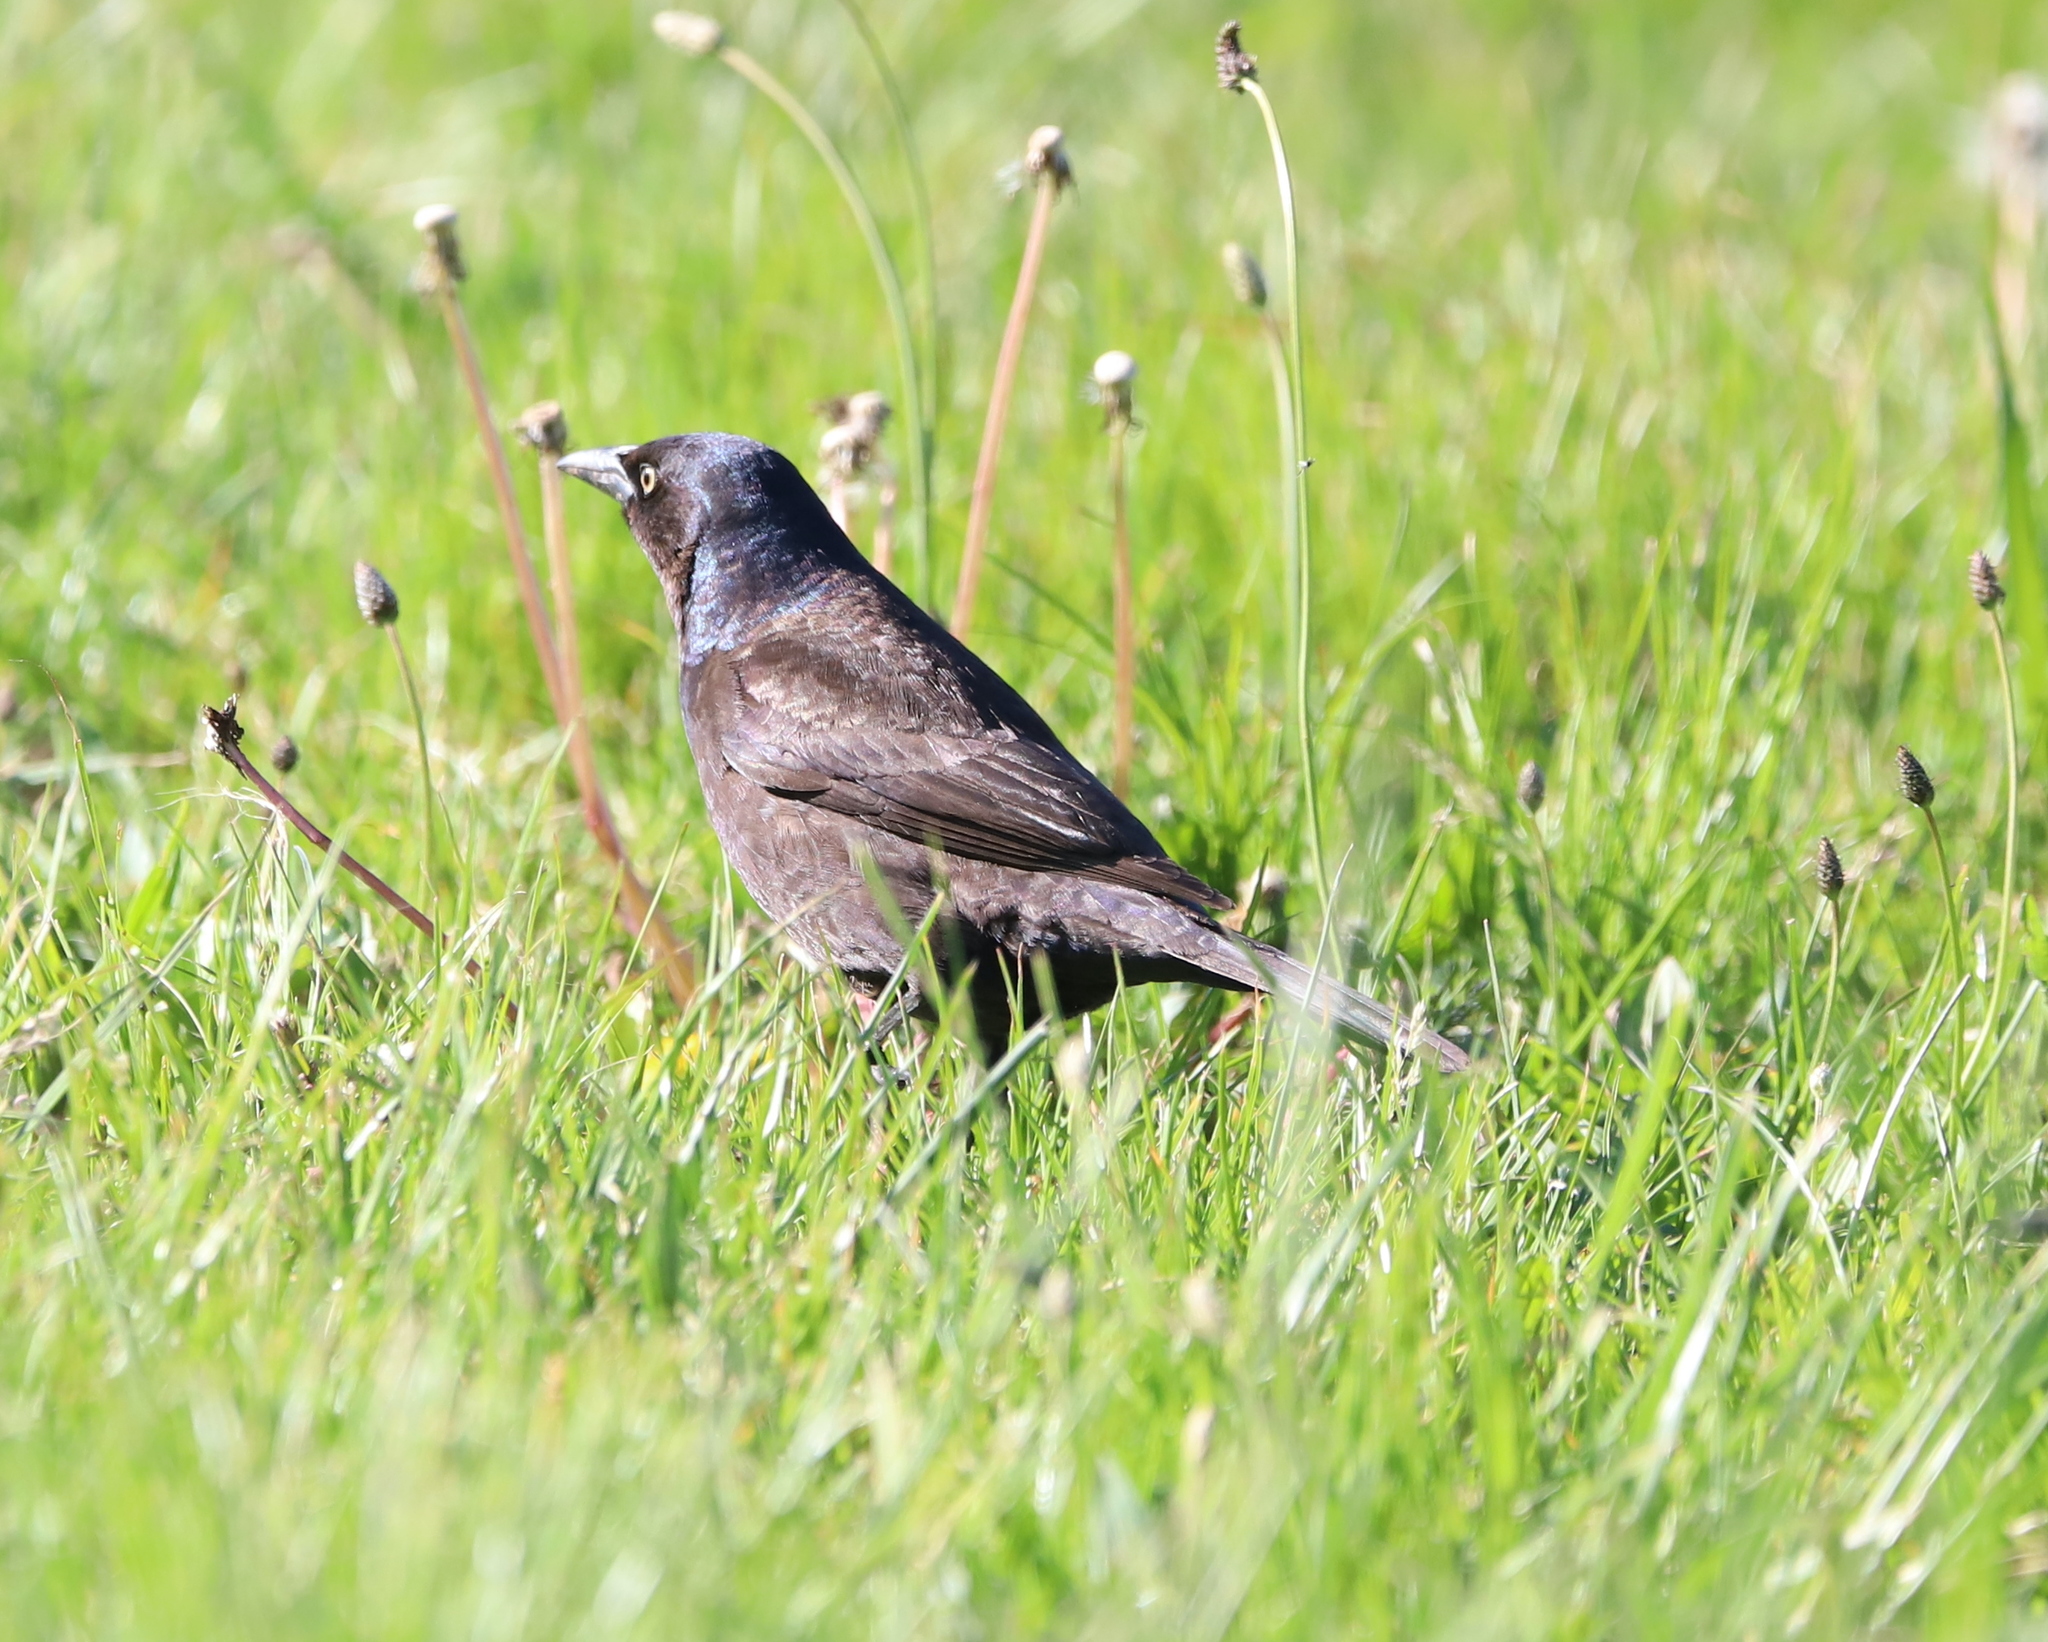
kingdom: Animalia
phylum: Chordata
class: Aves
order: Passeriformes
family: Icteridae
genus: Quiscalus
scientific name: Quiscalus quiscula
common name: Common grackle
